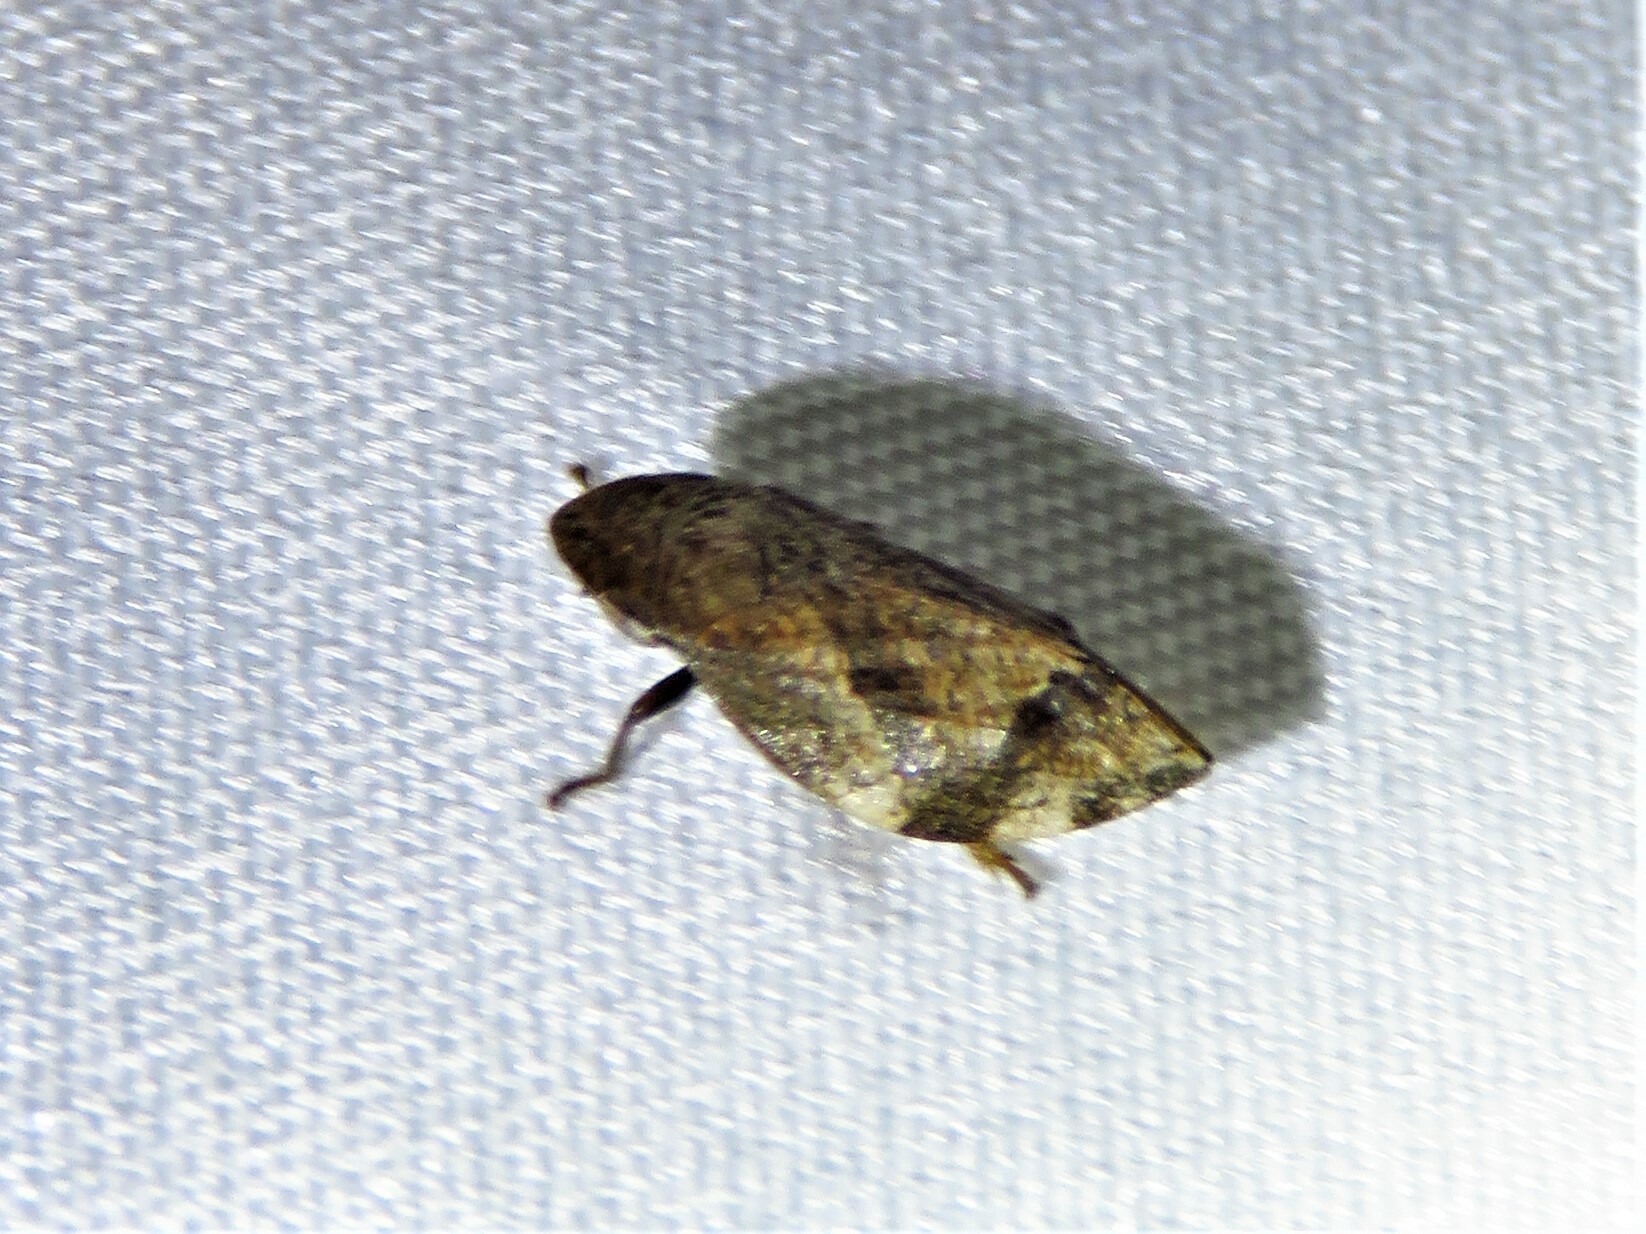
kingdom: Animalia
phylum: Arthropoda
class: Insecta
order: Hemiptera
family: Aphrophoridae
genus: Lepyronia
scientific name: Lepyronia quadrangularis
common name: Diamond-backed spittlebug
